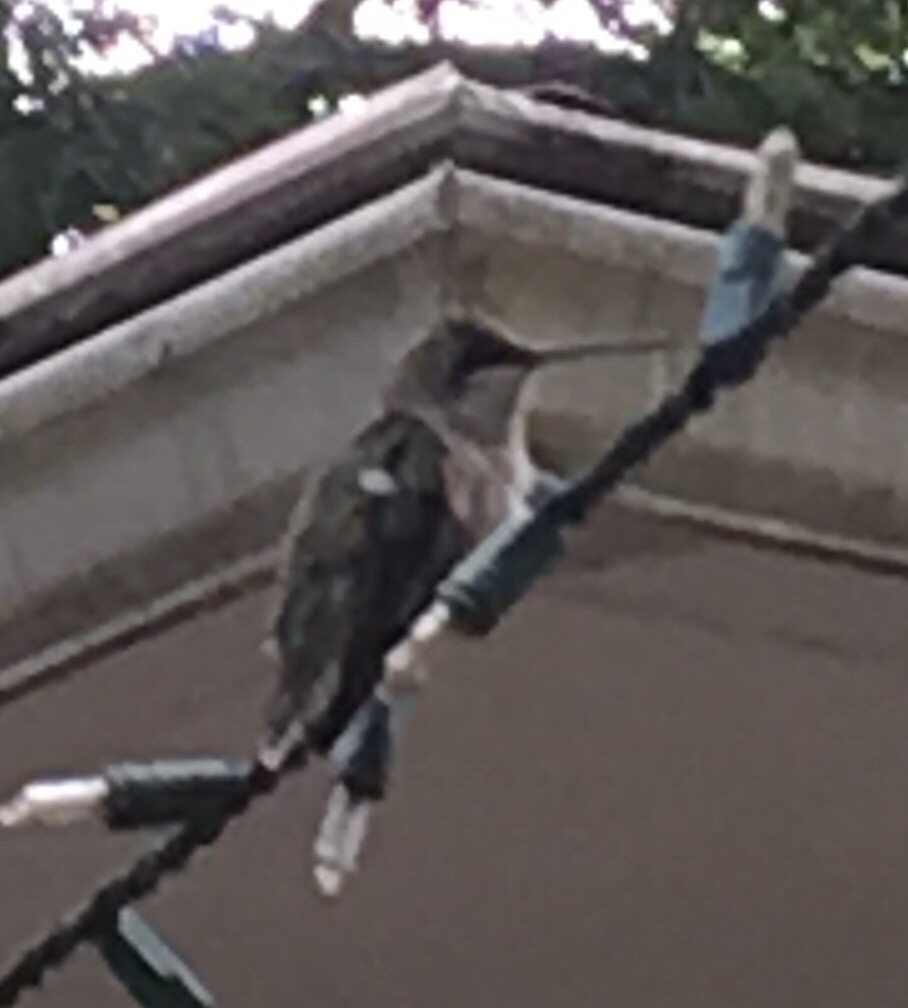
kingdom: Animalia
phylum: Chordata
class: Aves
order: Apodiformes
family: Trochilidae
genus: Archilochus
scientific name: Archilochus colubris
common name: Ruby-throated hummingbird
